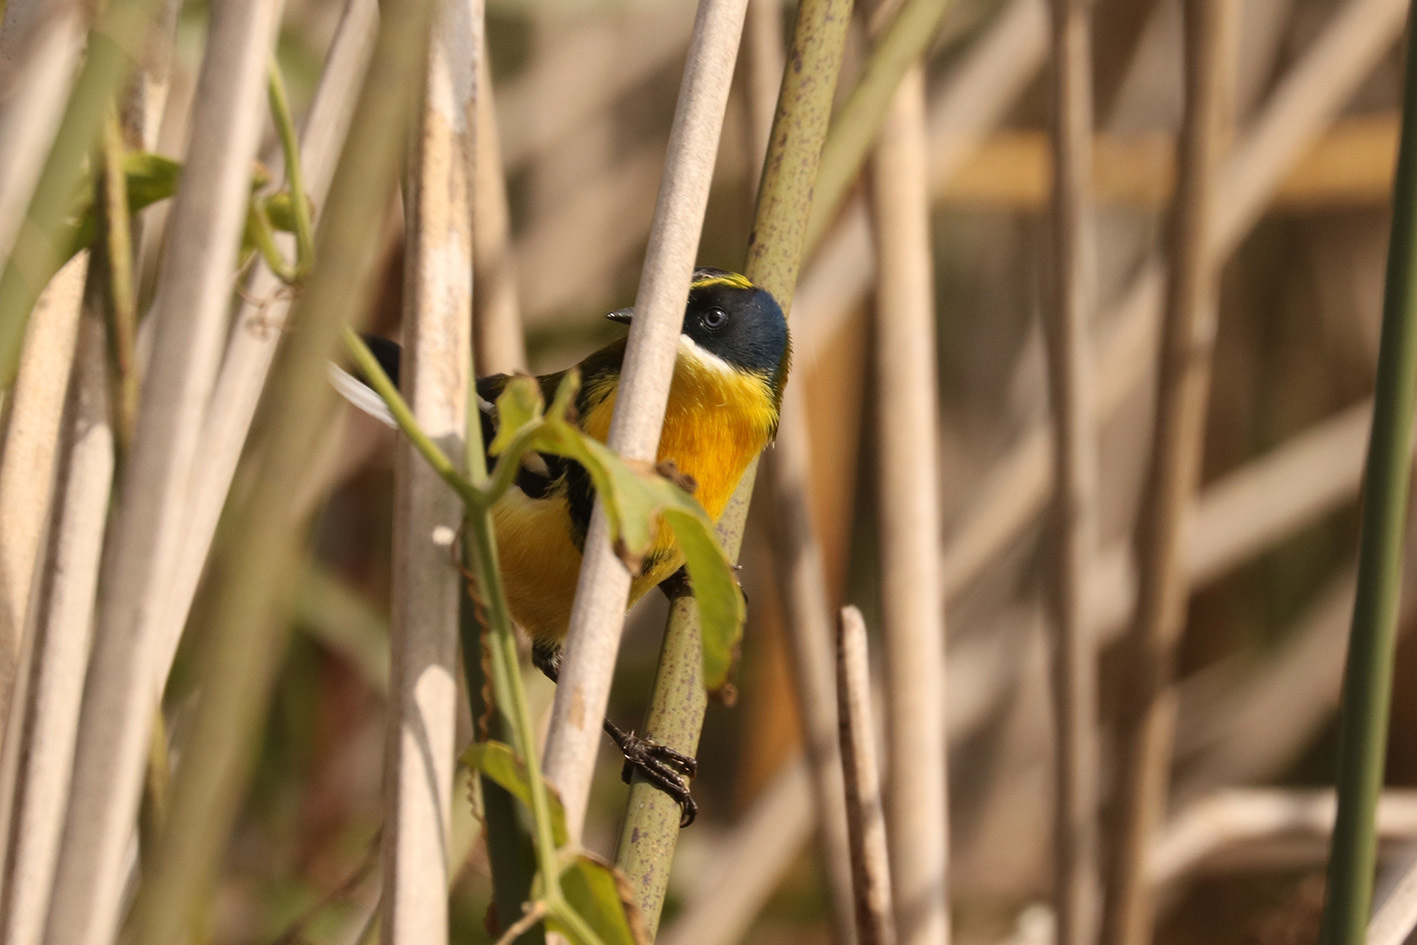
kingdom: Animalia
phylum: Chordata
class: Aves
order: Passeriformes
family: Tyrannidae
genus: Tachuris
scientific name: Tachuris rubrigastra
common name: Many-colored rush tyrant
